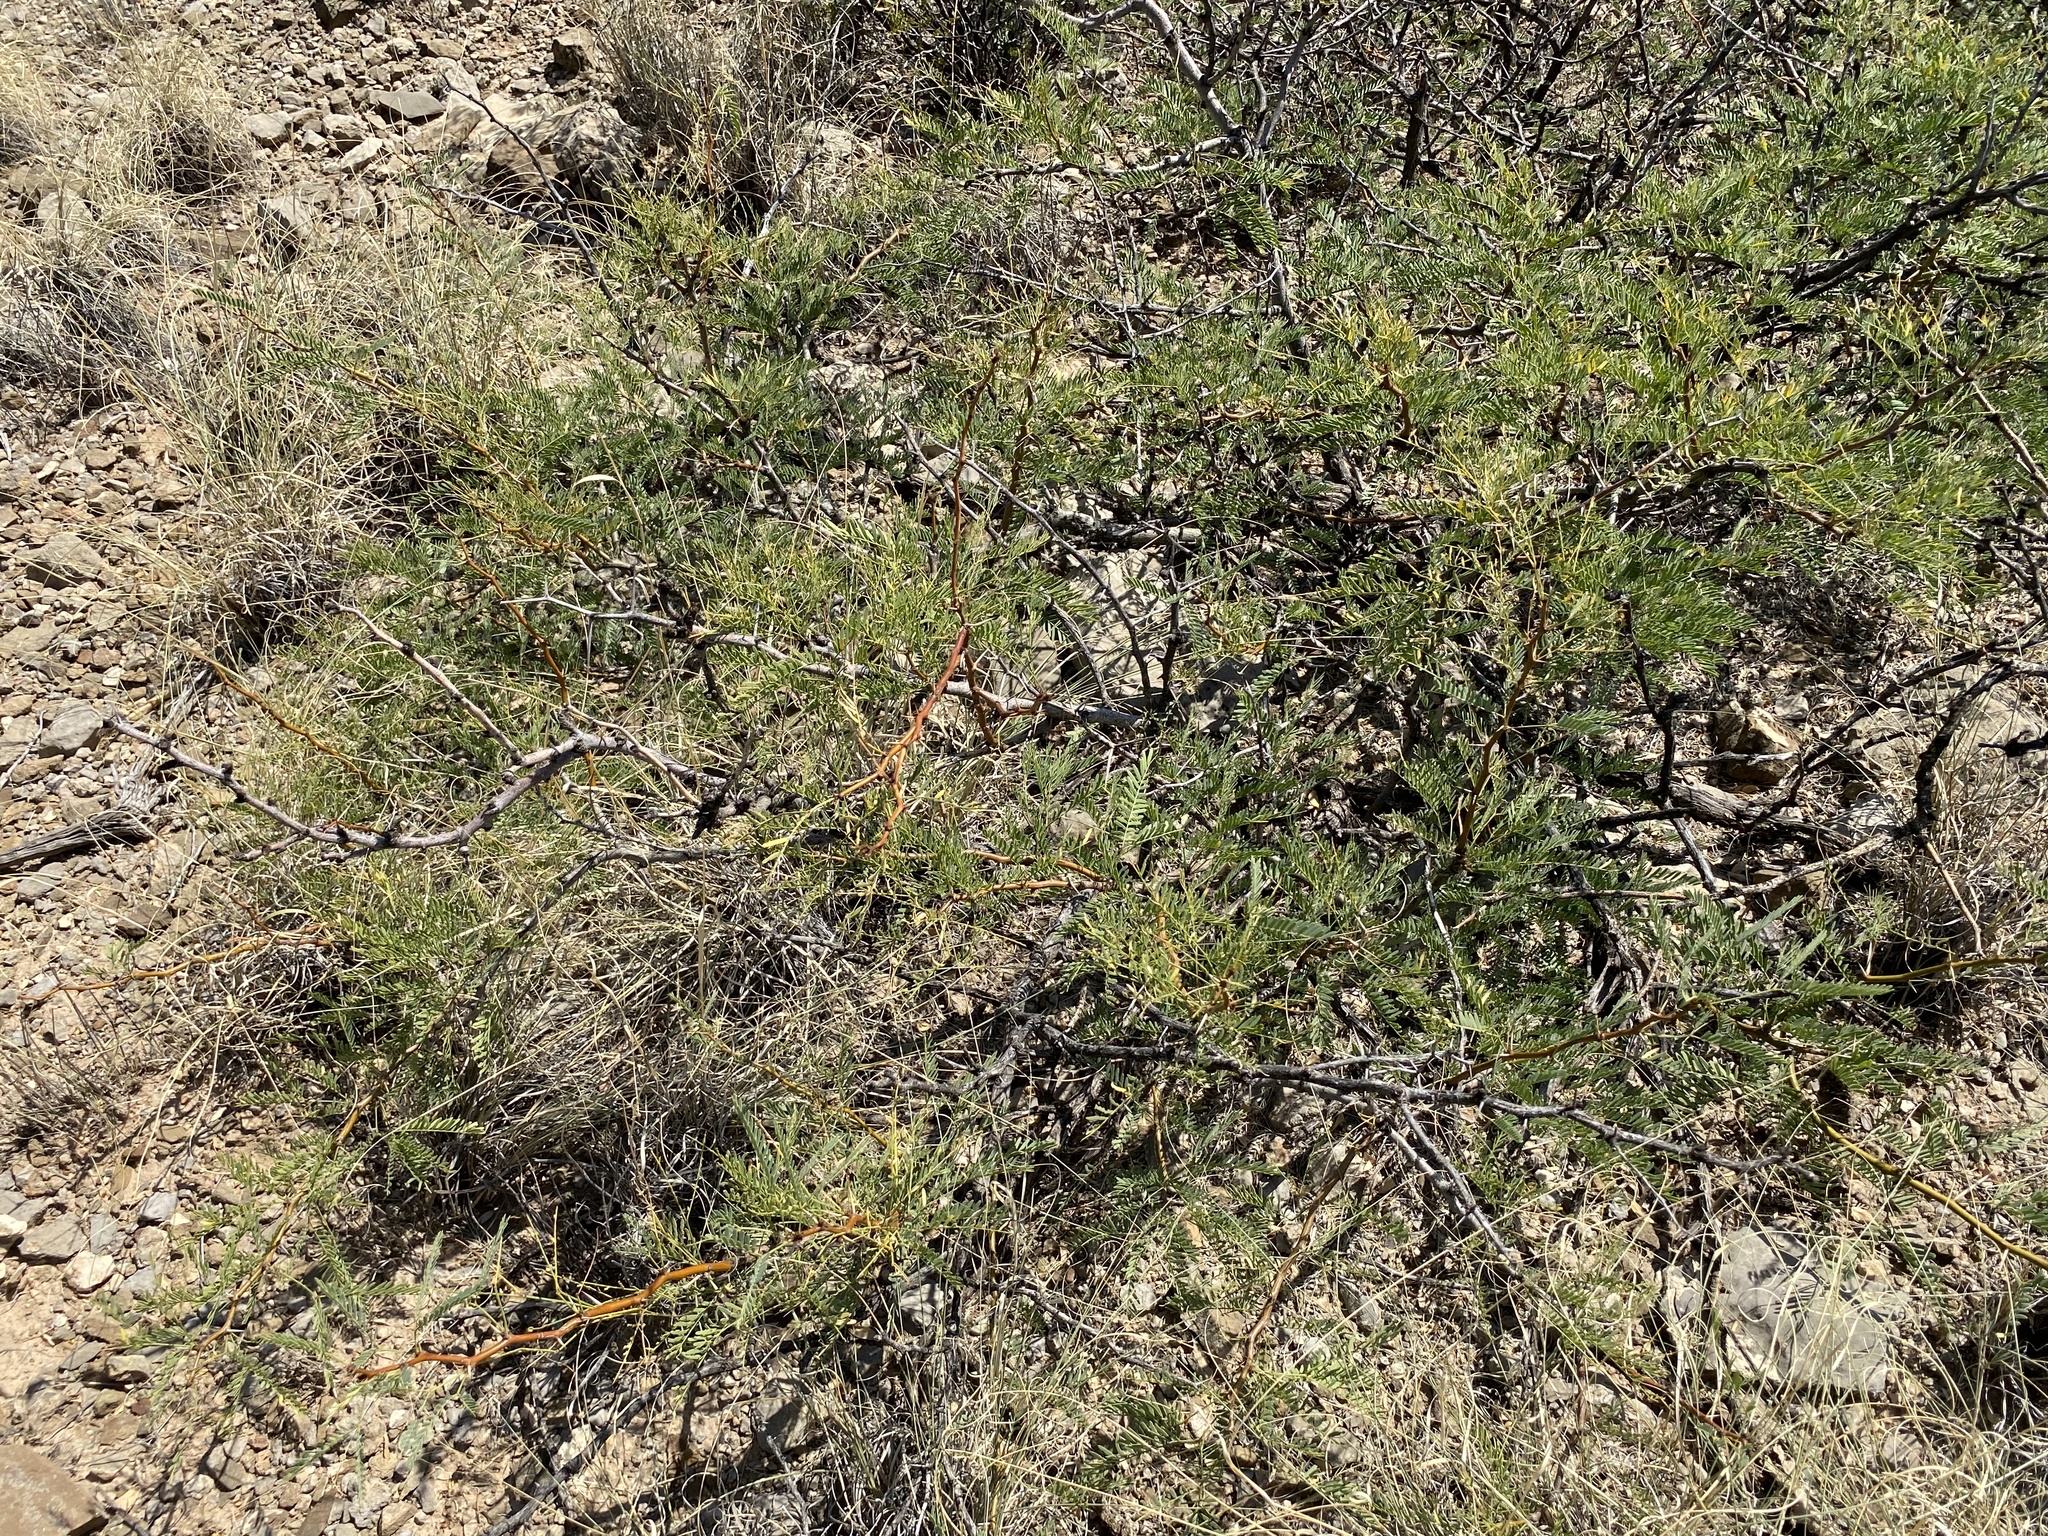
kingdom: Plantae
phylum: Tracheophyta
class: Magnoliopsida
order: Fabales
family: Fabaceae
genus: Prosopis
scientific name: Prosopis glandulosa
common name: Honey mesquite
